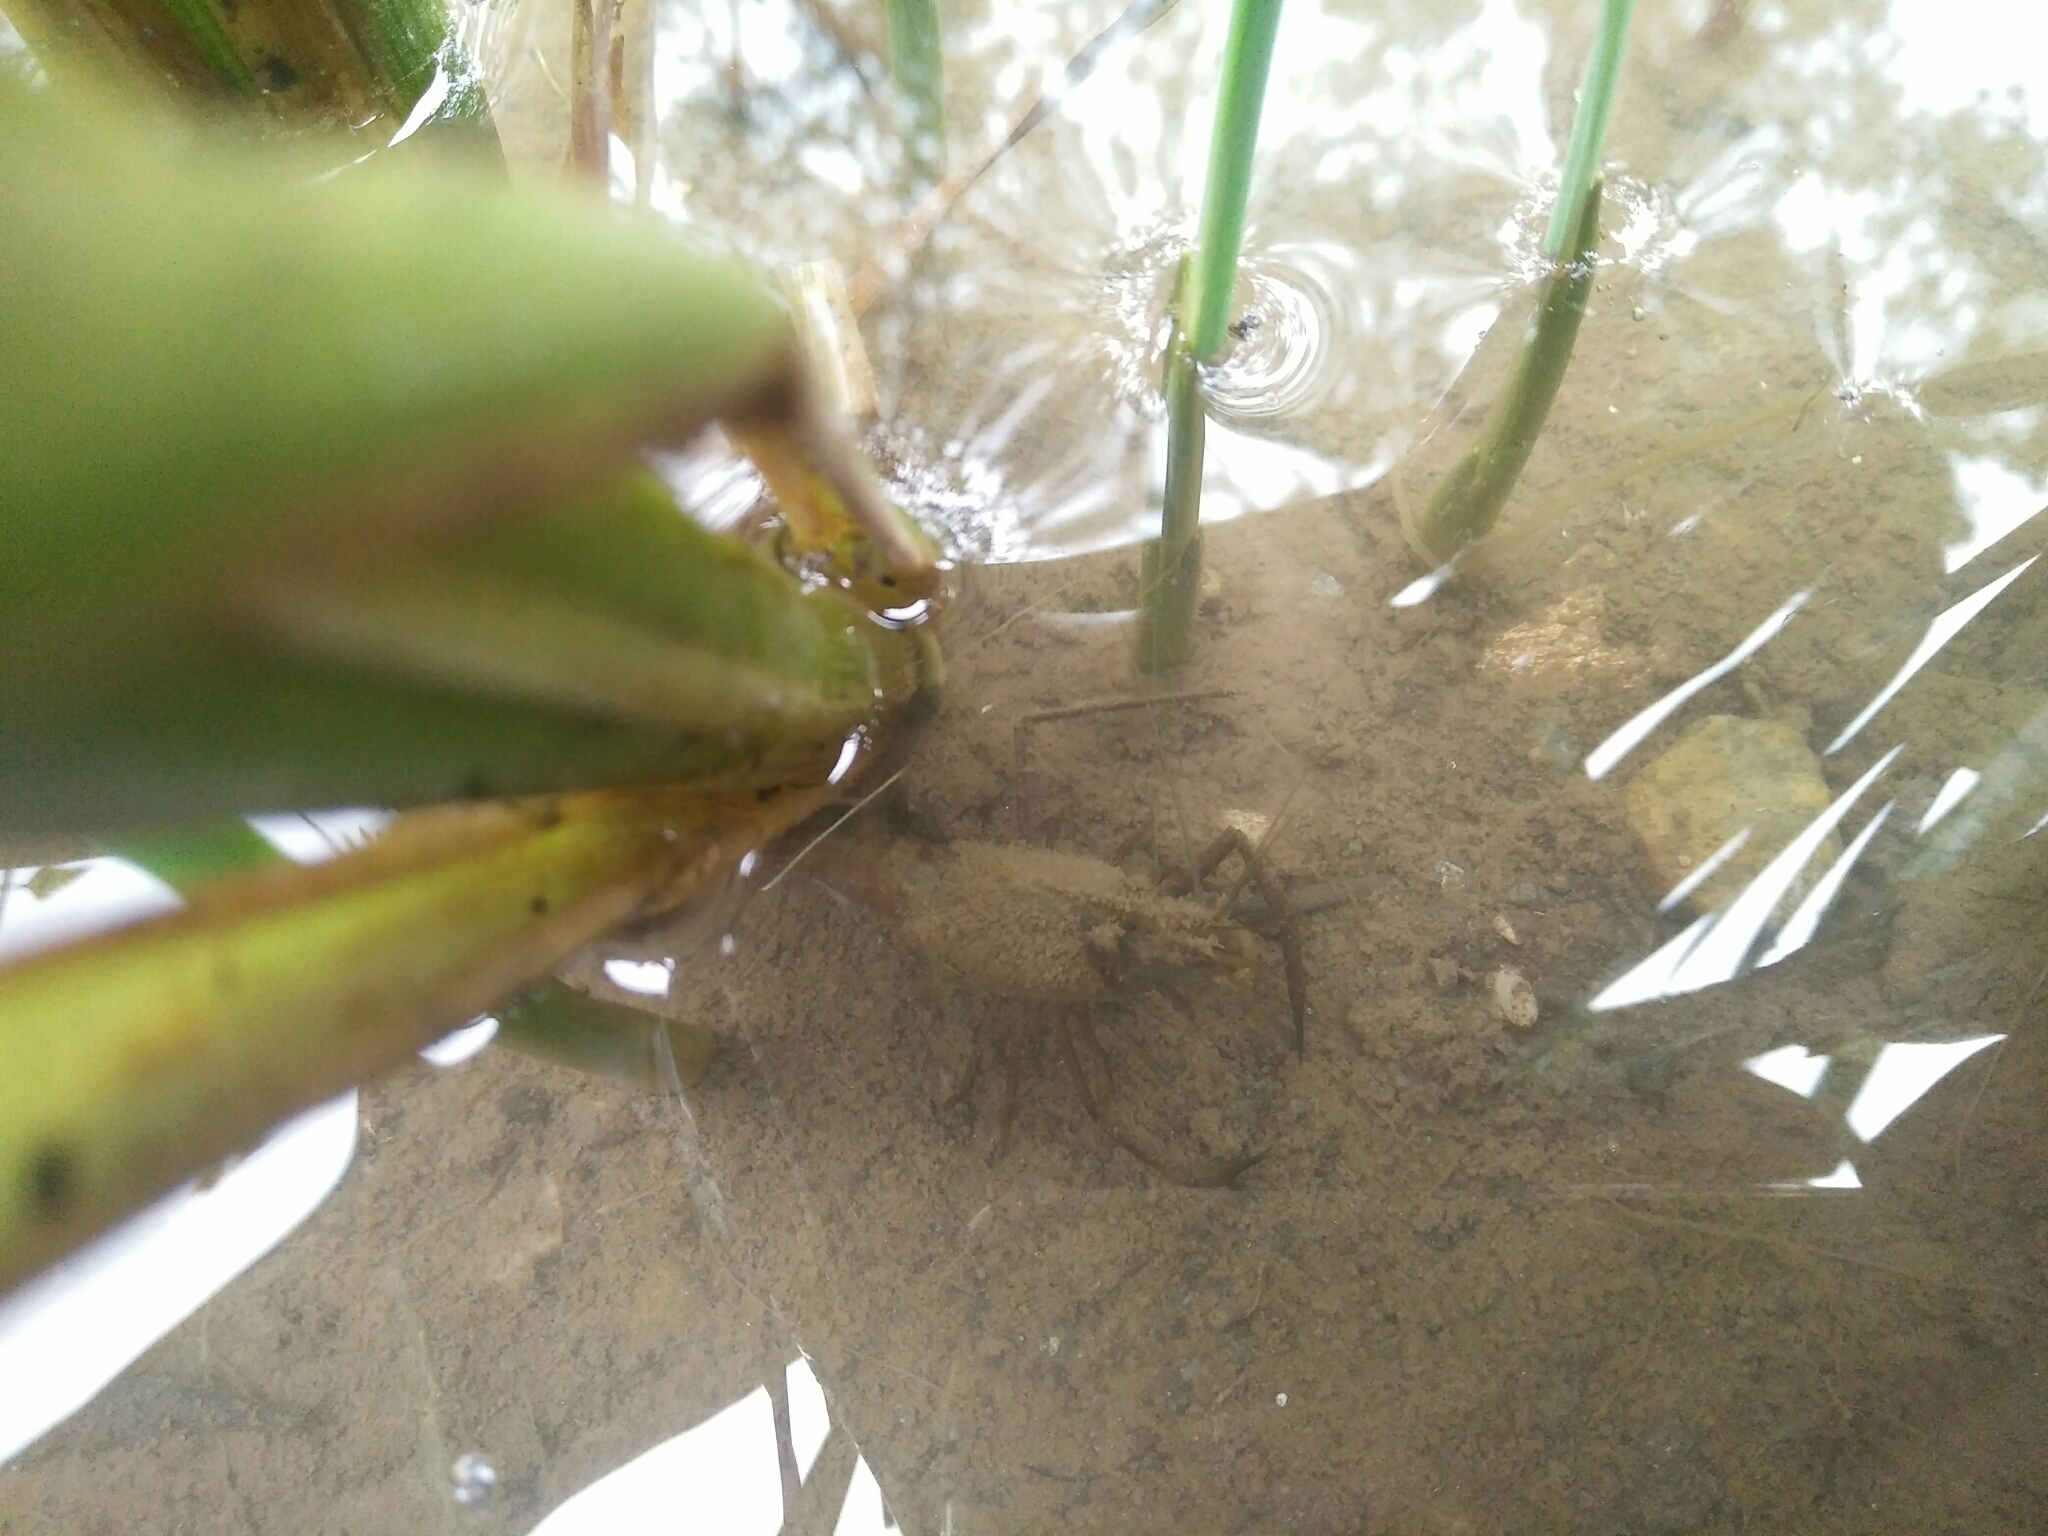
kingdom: Animalia
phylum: Arthropoda
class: Malacostraca
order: Decapoda
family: Palaemonidae
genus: Macrobrachium
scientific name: Macrobrachium asperulum
